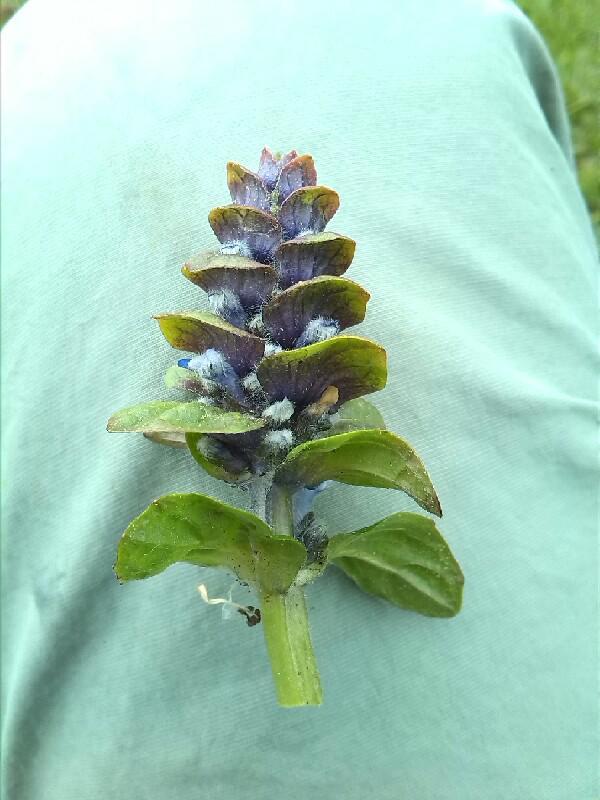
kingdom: Plantae
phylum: Tracheophyta
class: Magnoliopsida
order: Lamiales
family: Lamiaceae
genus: Ajuga
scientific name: Ajuga reptans
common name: Bugle
